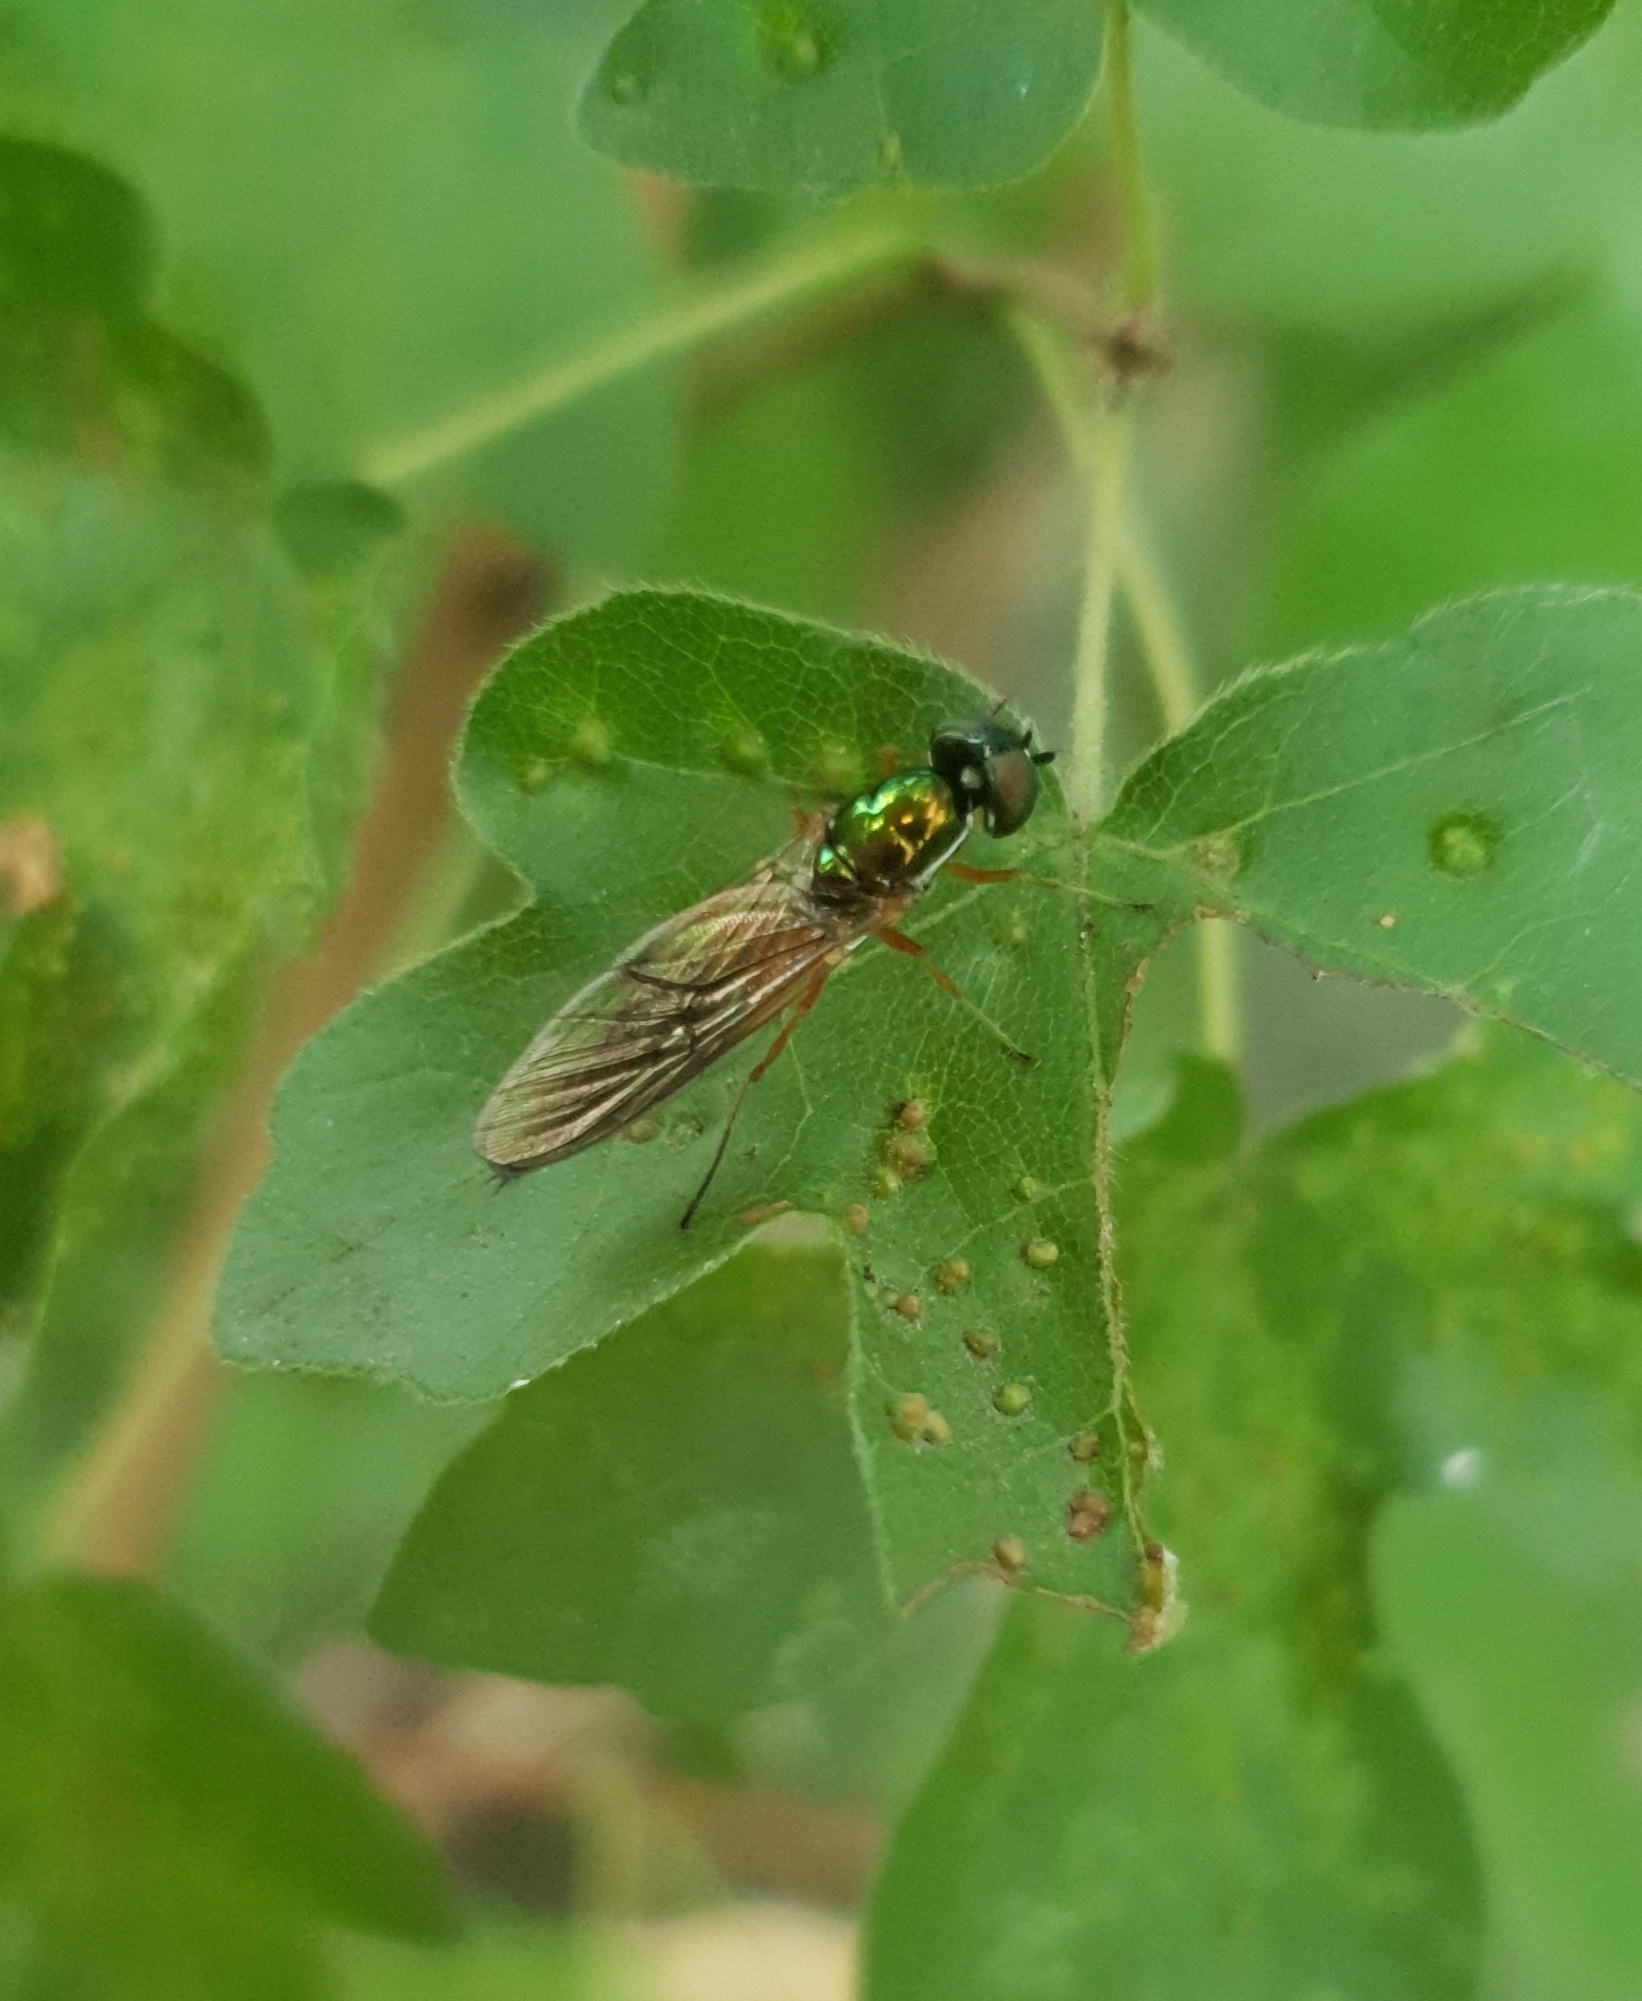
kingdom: Animalia
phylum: Arthropoda
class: Insecta
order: Diptera
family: Stratiomyidae
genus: Sargus
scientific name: Sargus bipunctatus
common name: Twin-spot centurion
